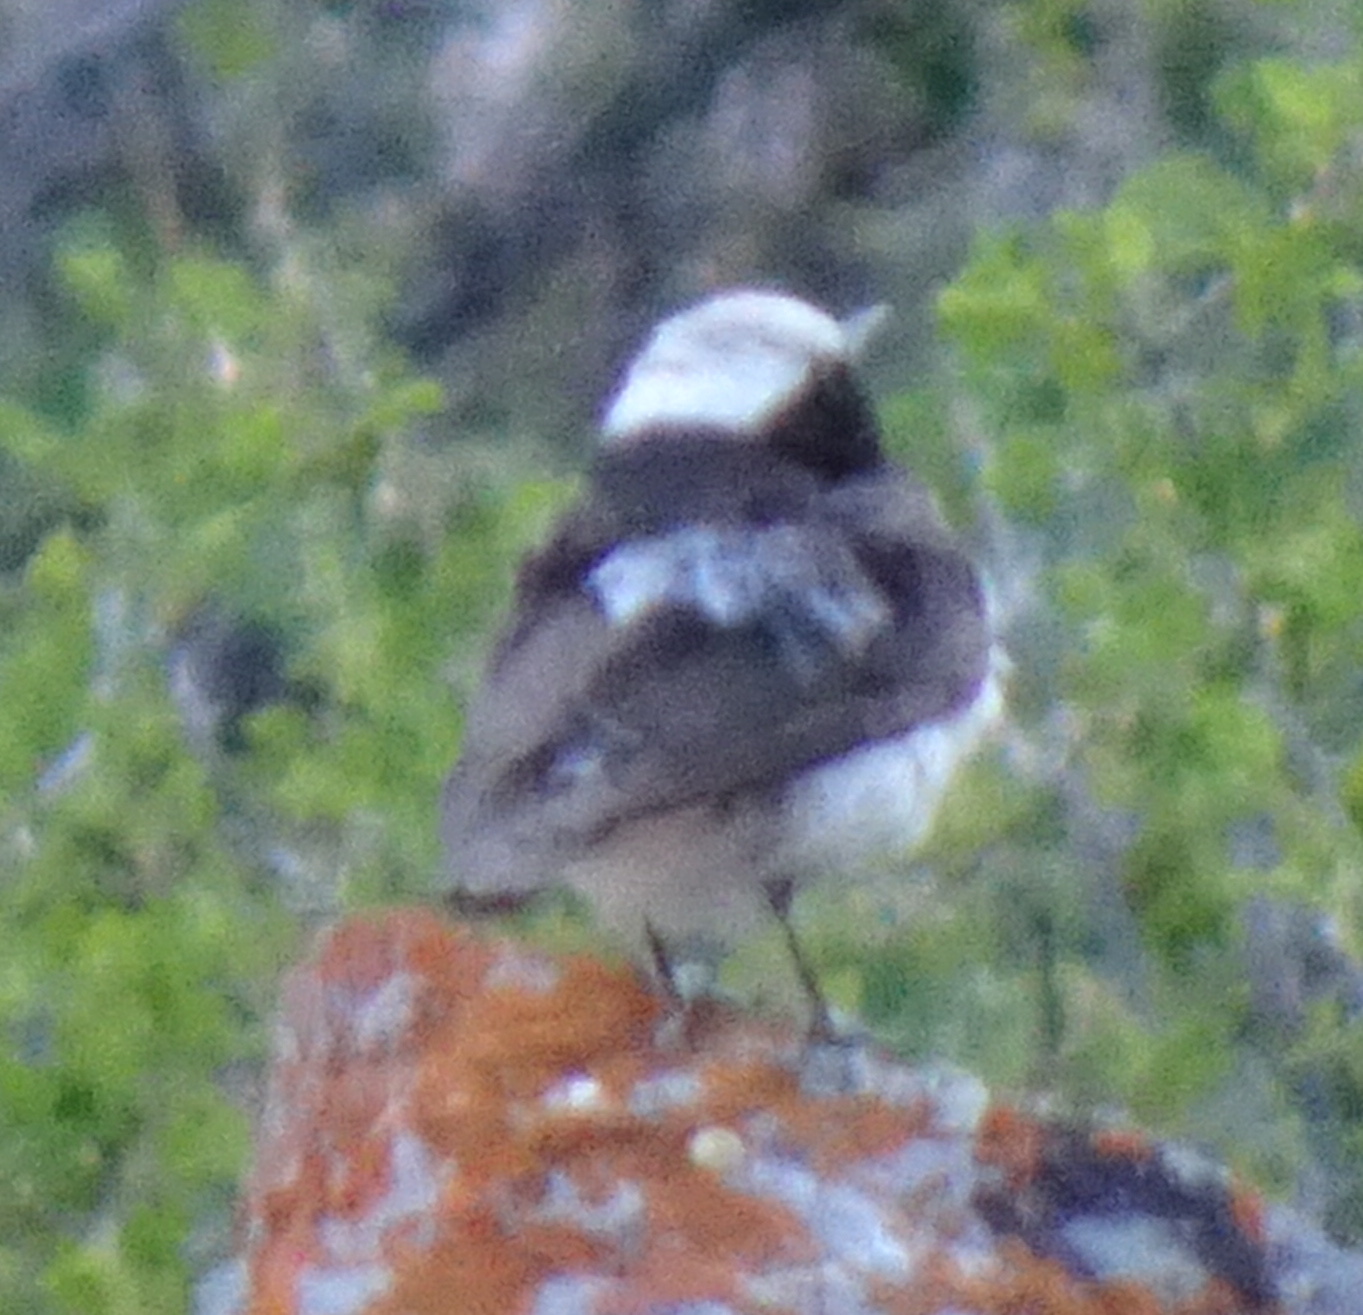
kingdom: Animalia
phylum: Chordata
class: Aves
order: Passeriformes
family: Muscicapidae
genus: Oenanthe
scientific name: Oenanthe pleschanka
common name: Pied wheatear
